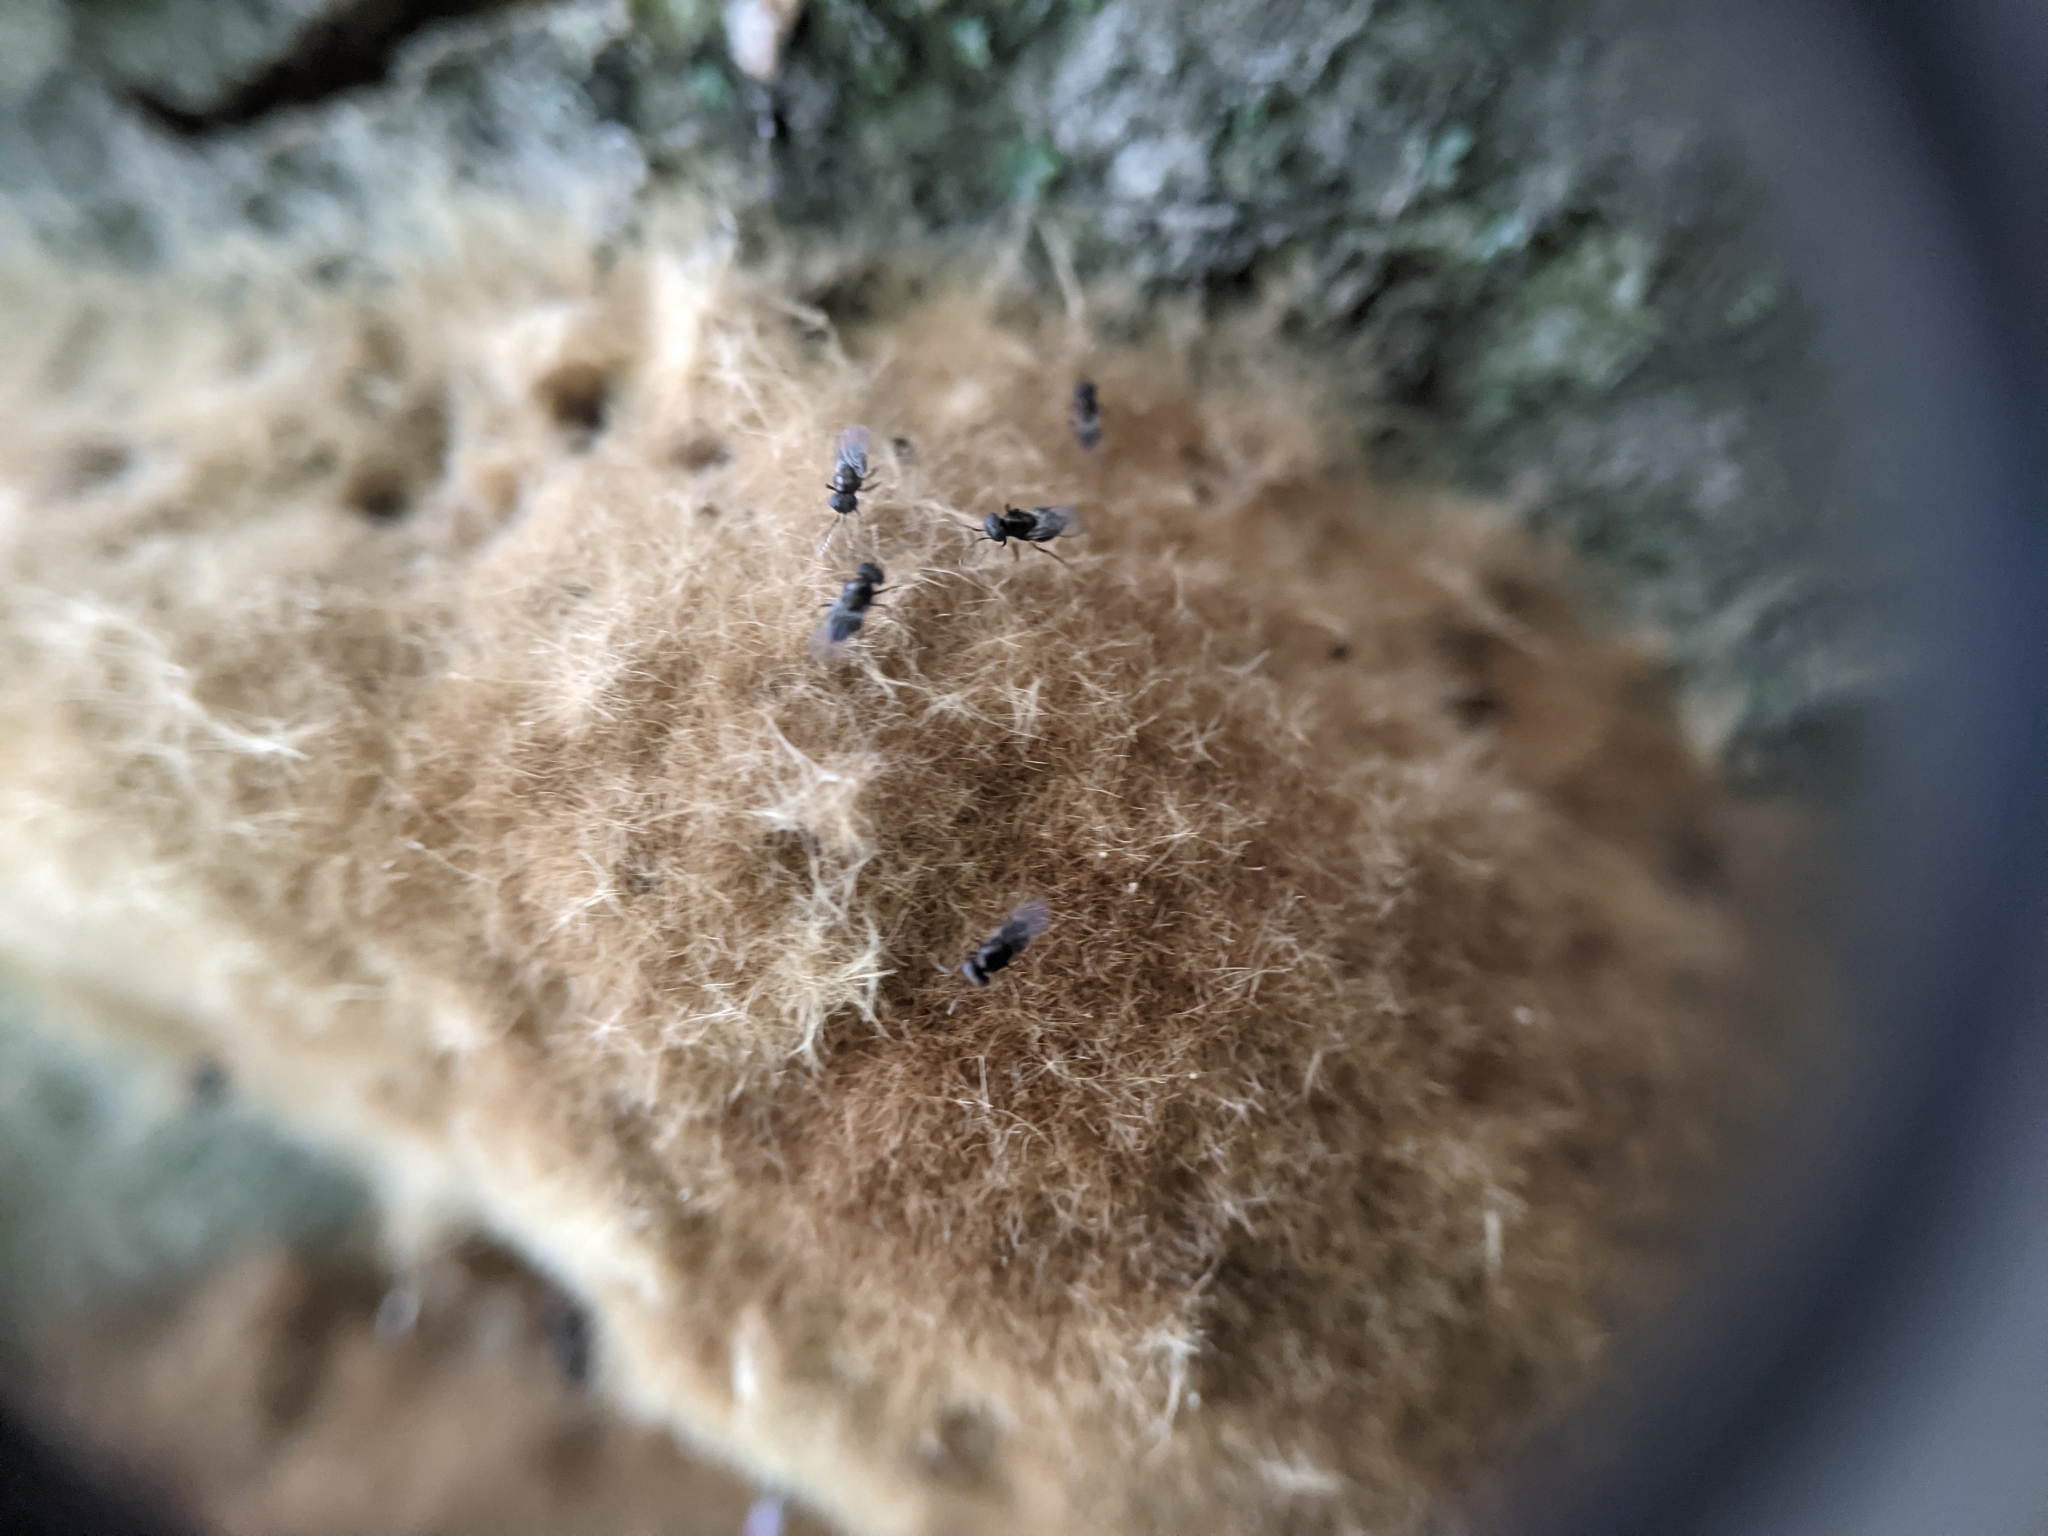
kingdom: Animalia
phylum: Arthropoda
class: Insecta
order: Hymenoptera
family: Encyrtidae
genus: Ooencyrtus
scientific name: Ooencyrtus kuvanae
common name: Wasp
